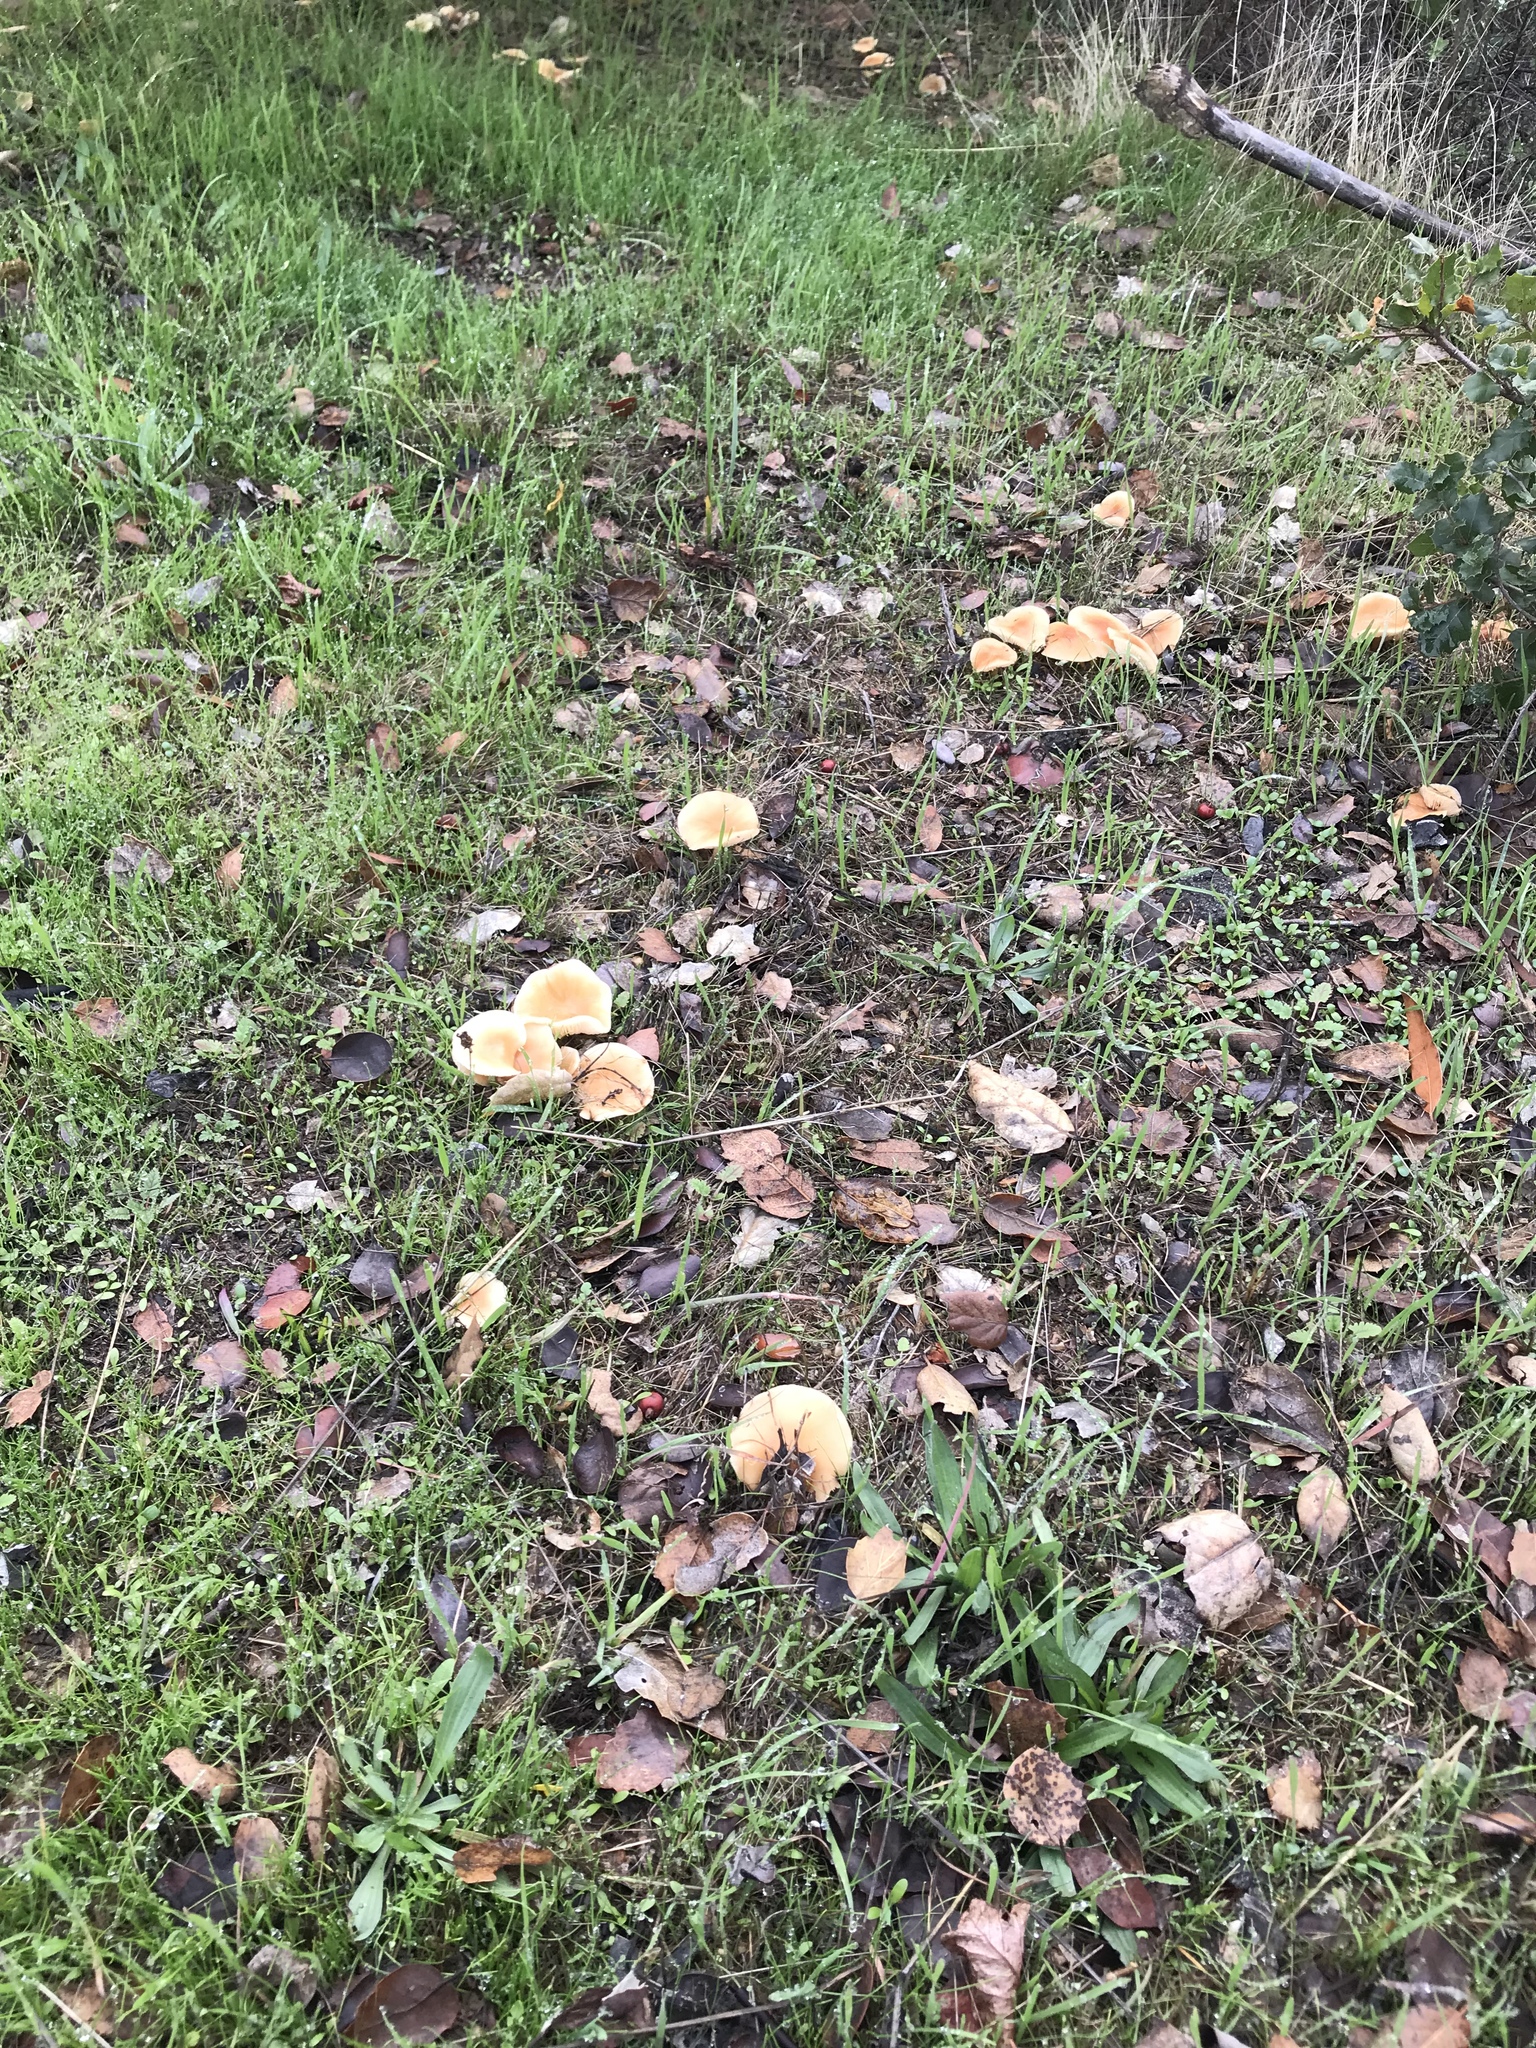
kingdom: Fungi
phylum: Basidiomycota
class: Agaricomycetes
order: Agaricales
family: Omphalotaceae
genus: Gymnopus
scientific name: Gymnopus dryophilus
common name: Penny top
